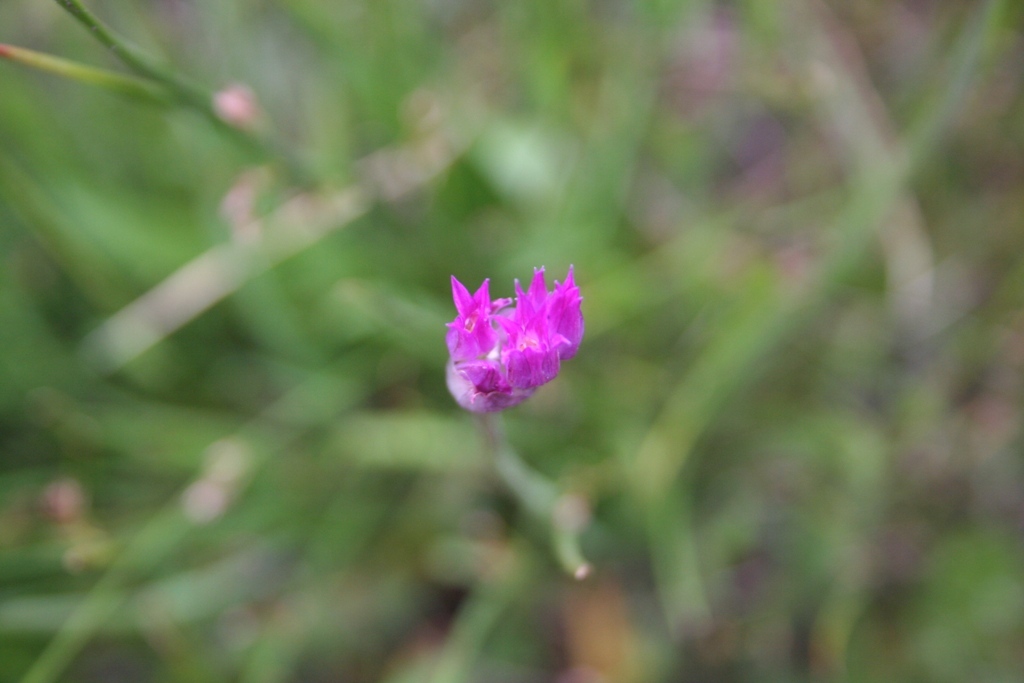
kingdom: Plantae
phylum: Tracheophyta
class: Liliopsida
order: Asparagales
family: Amaryllidaceae
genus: Allium
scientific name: Allium brevistylum
